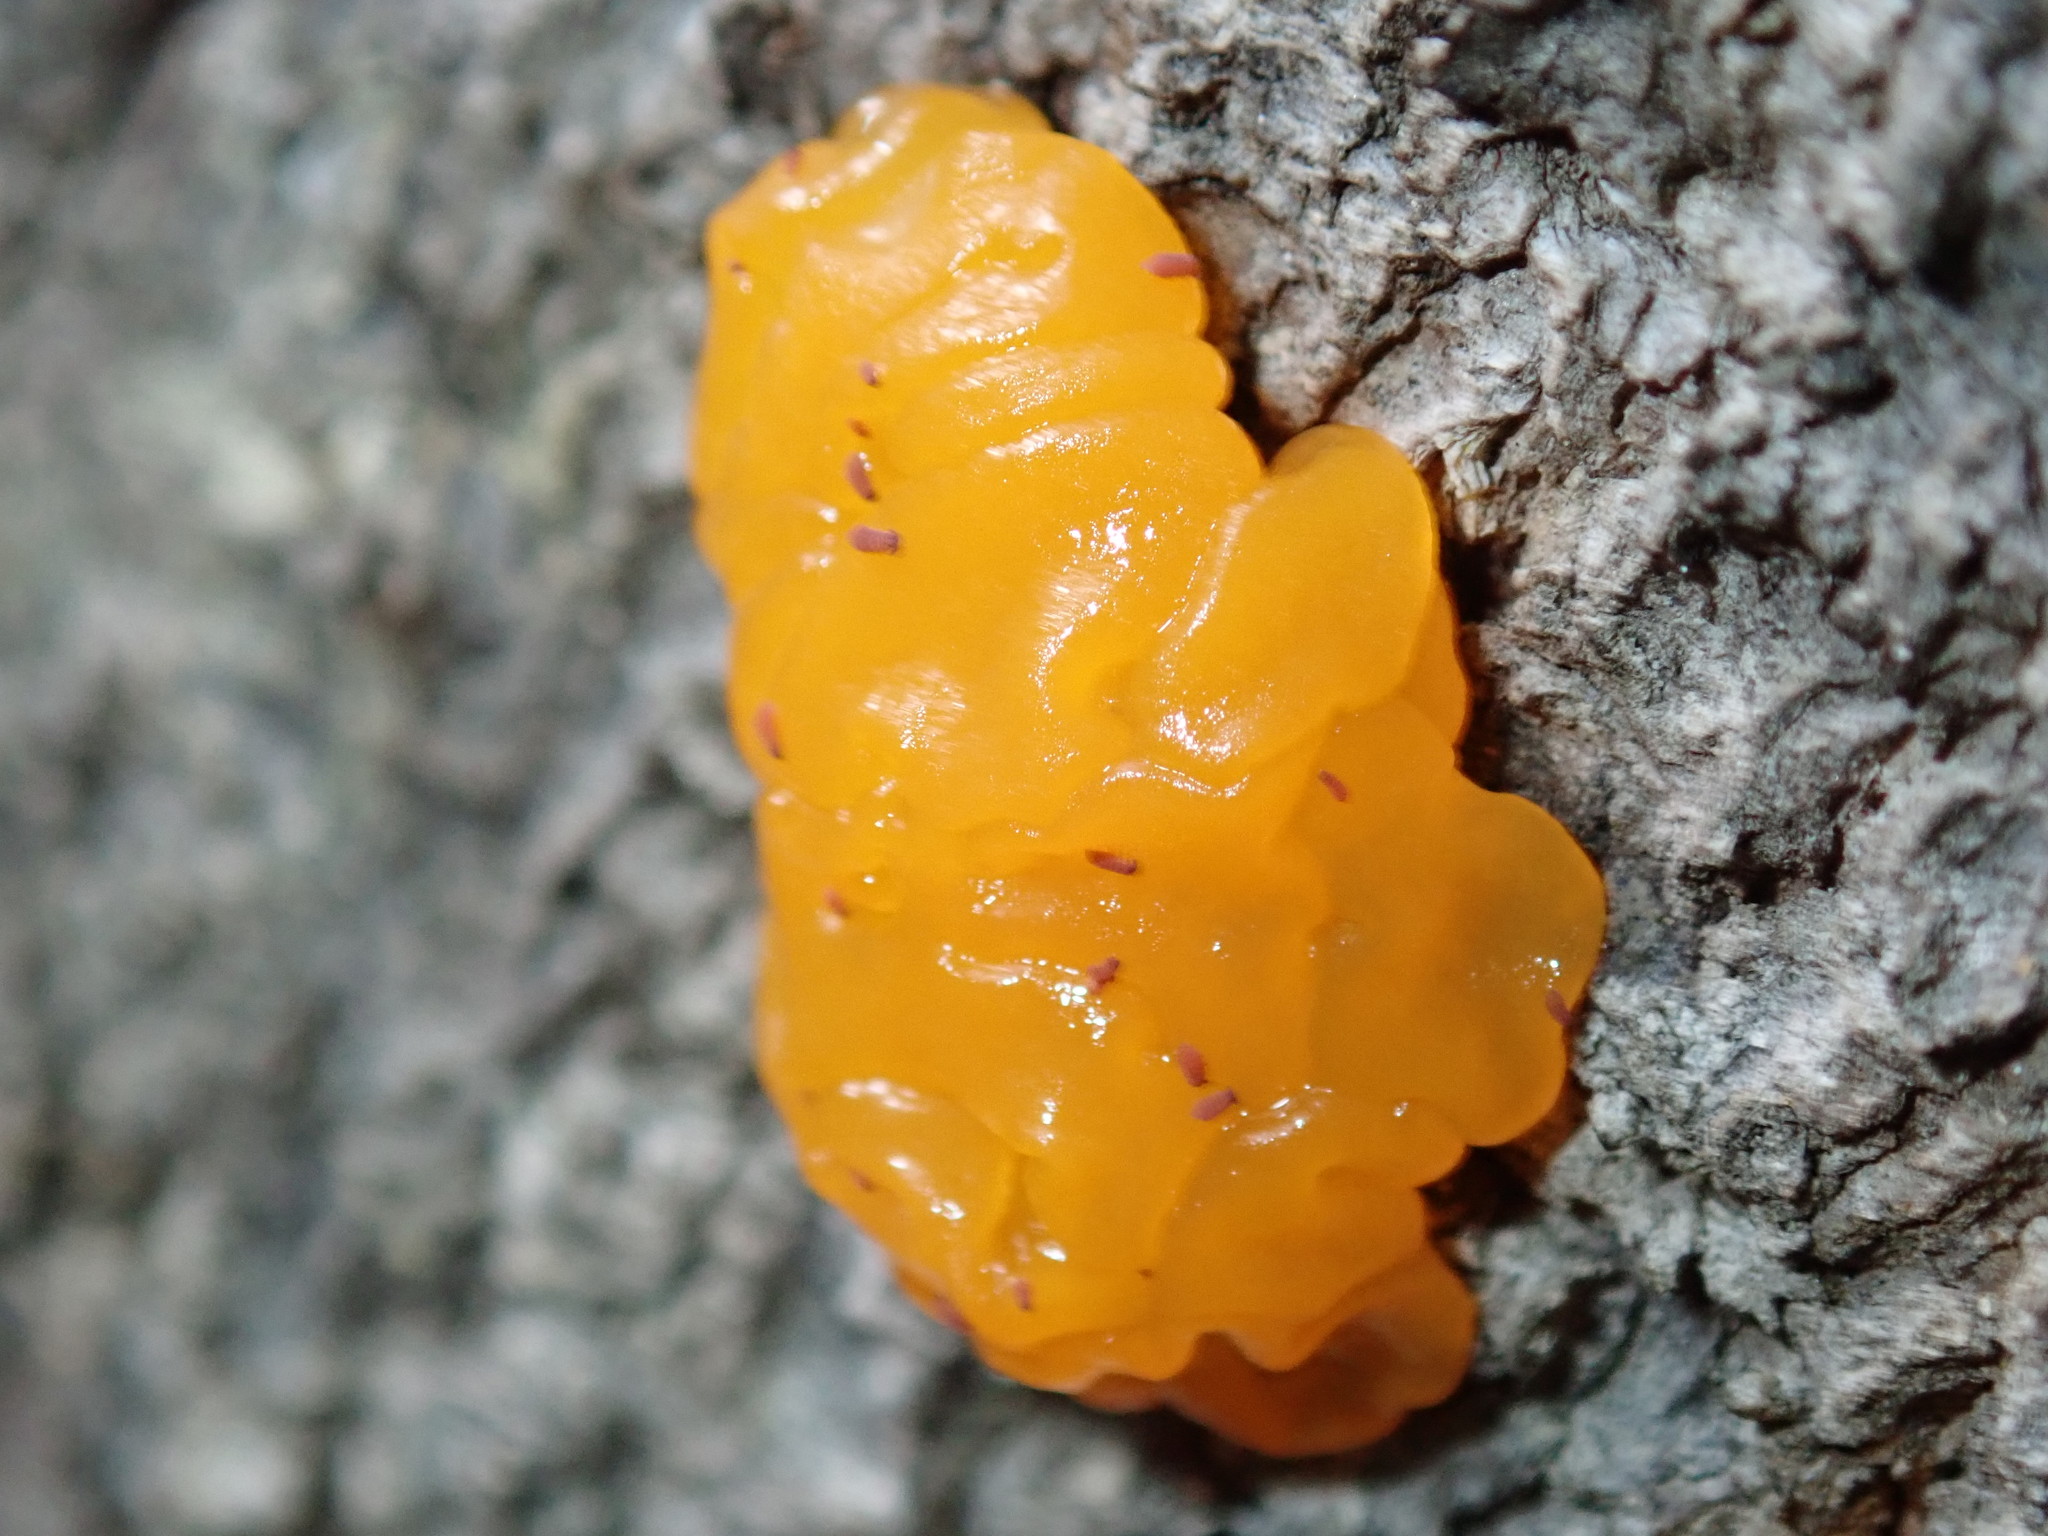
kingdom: Fungi
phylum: Basidiomycota
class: Tremellomycetes
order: Tremellales
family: Tremellaceae
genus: Tremella
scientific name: Tremella mesenterica
